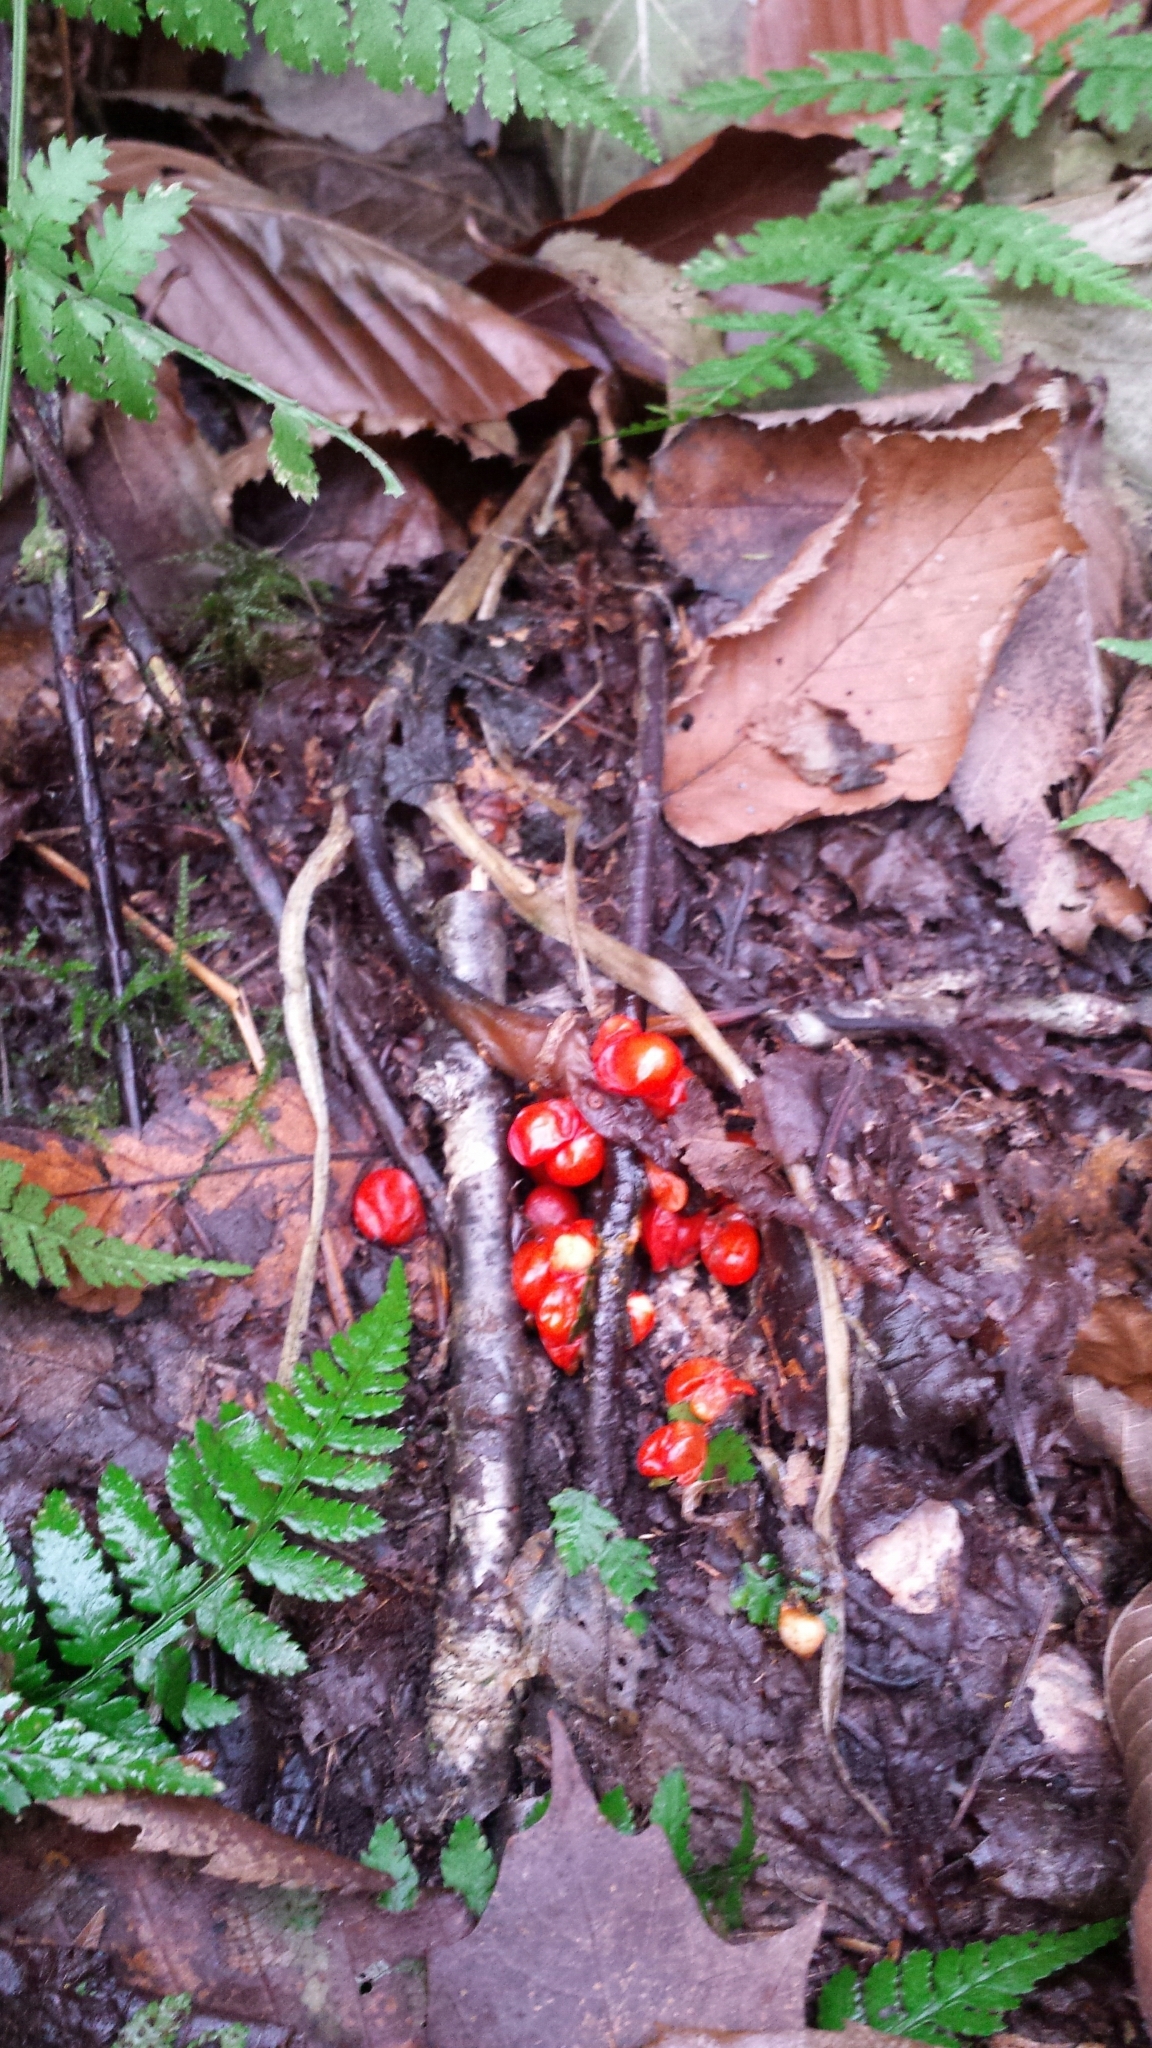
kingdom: Plantae
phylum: Tracheophyta
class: Liliopsida
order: Alismatales
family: Araceae
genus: Arisaema
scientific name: Arisaema triphyllum
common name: Jack-in-the-pulpit
